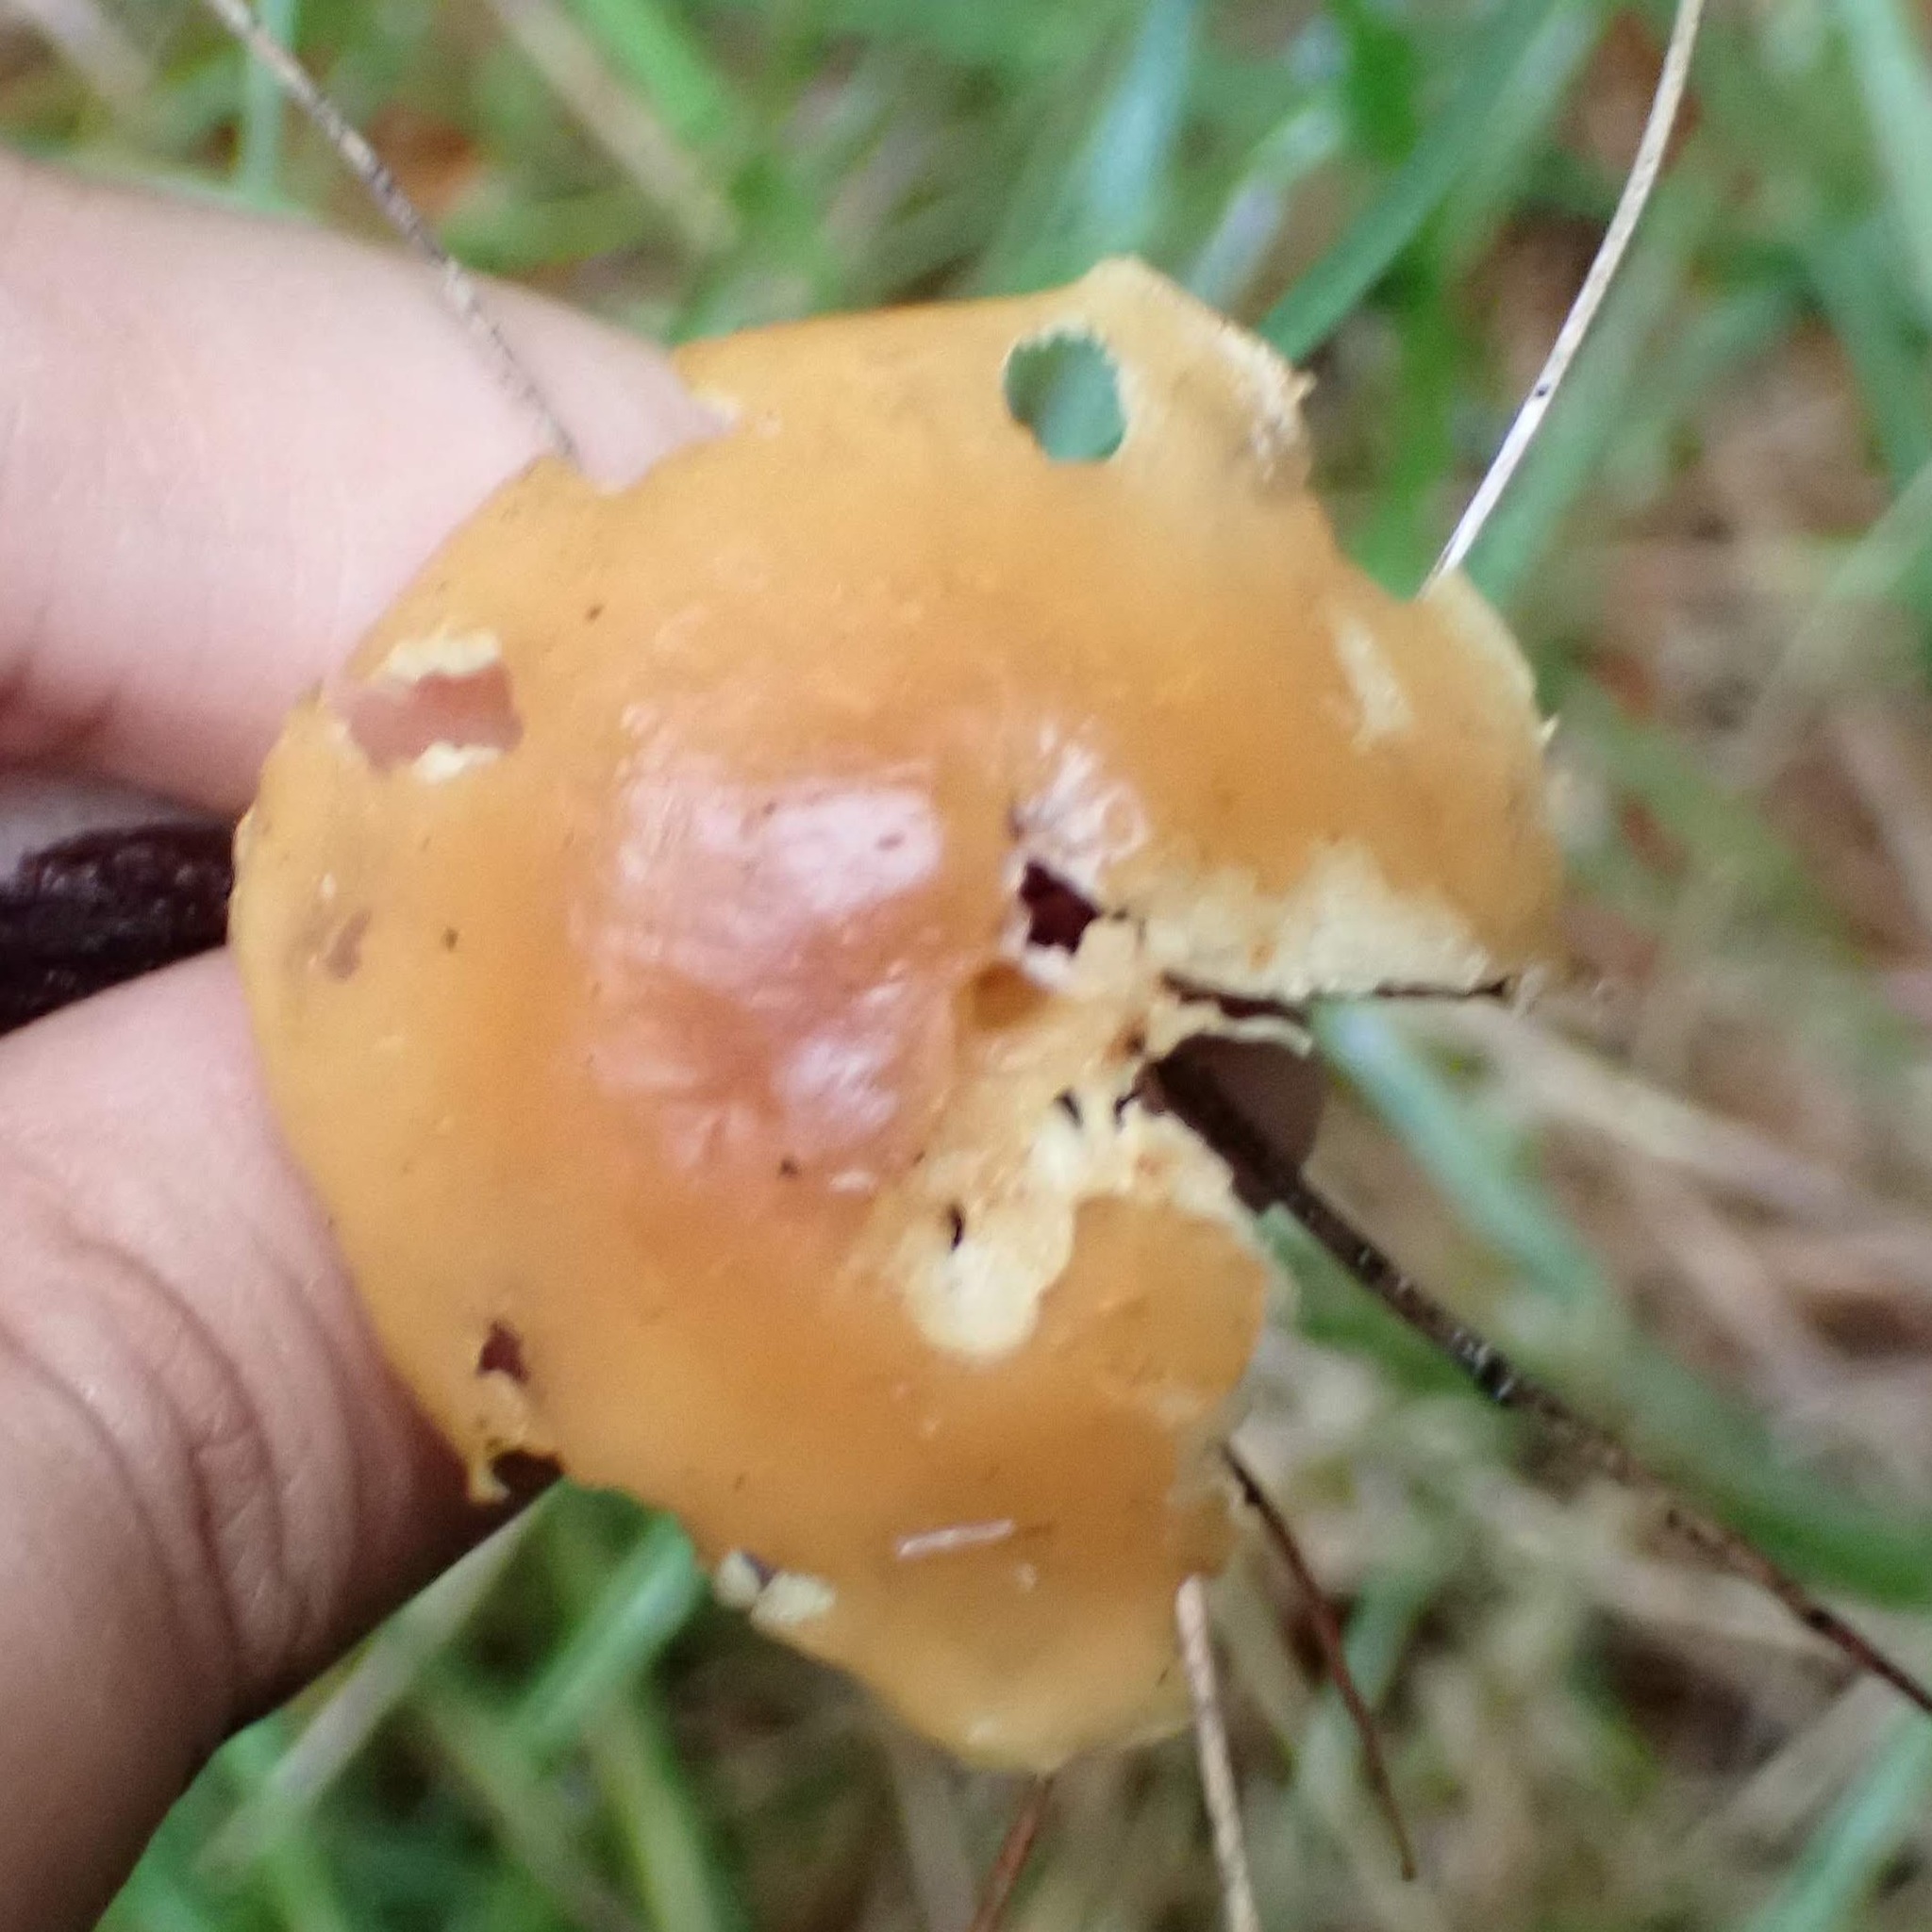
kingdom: Fungi
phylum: Basidiomycota
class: Agaricomycetes
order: Agaricales
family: Omphalotaceae
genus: Rhodocollybia
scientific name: Rhodocollybia butyracea
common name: Butter cap
